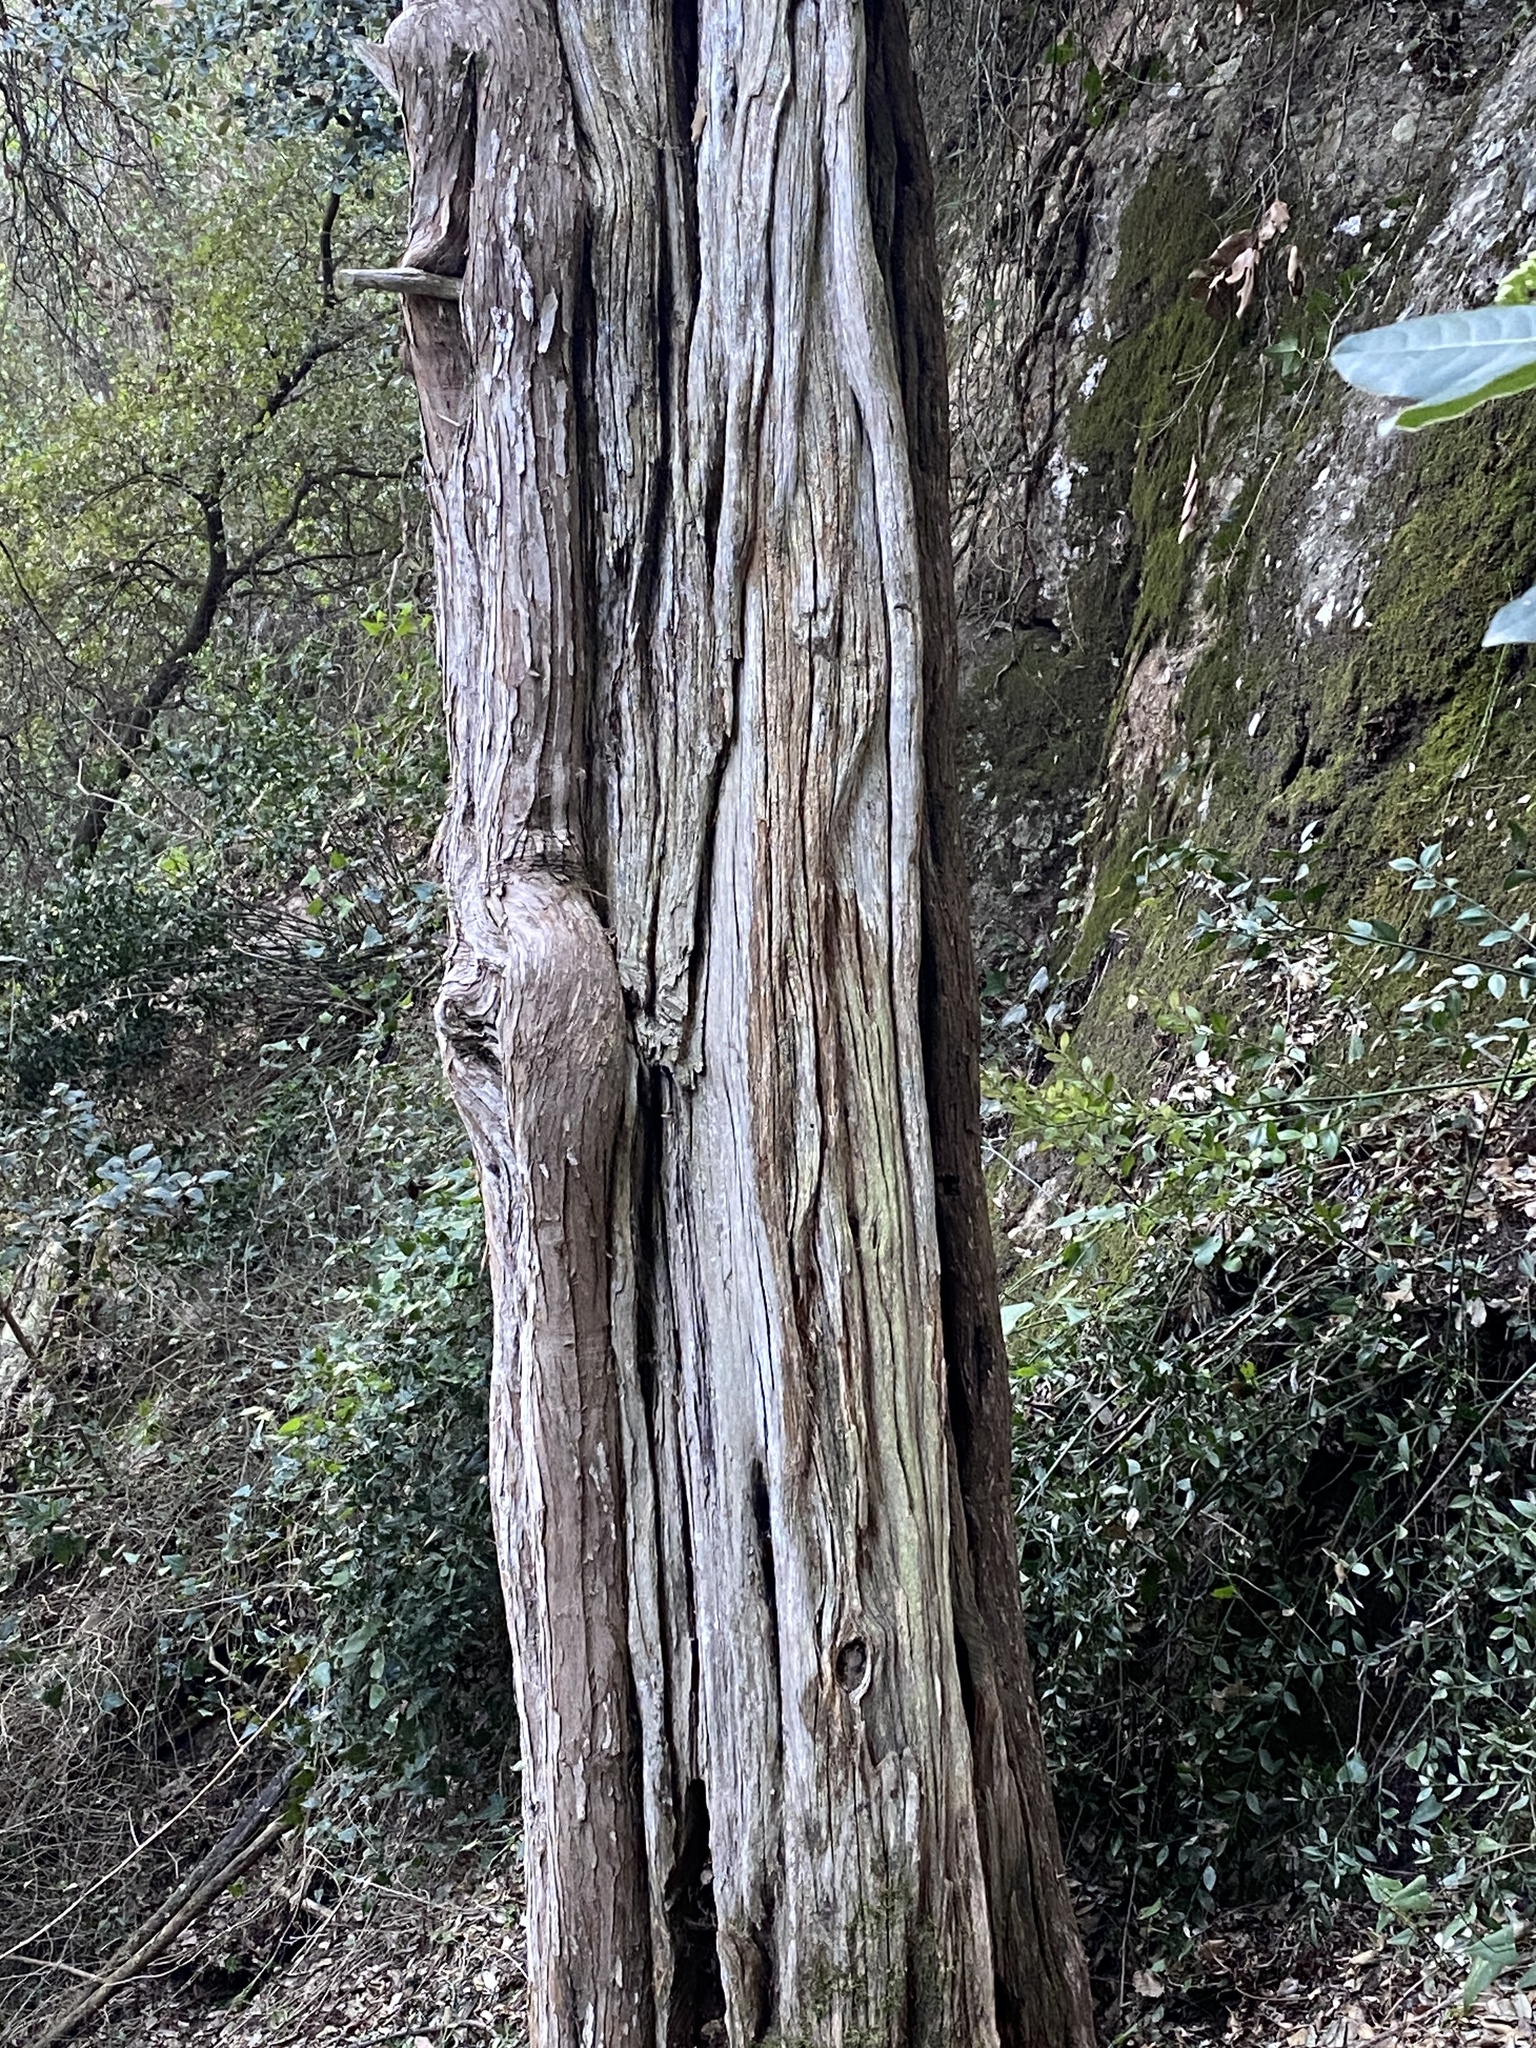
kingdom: Plantae
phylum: Tracheophyta
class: Pinopsida
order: Pinales
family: Taxaceae
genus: Taxus
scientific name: Taxus baccata
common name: Yew
